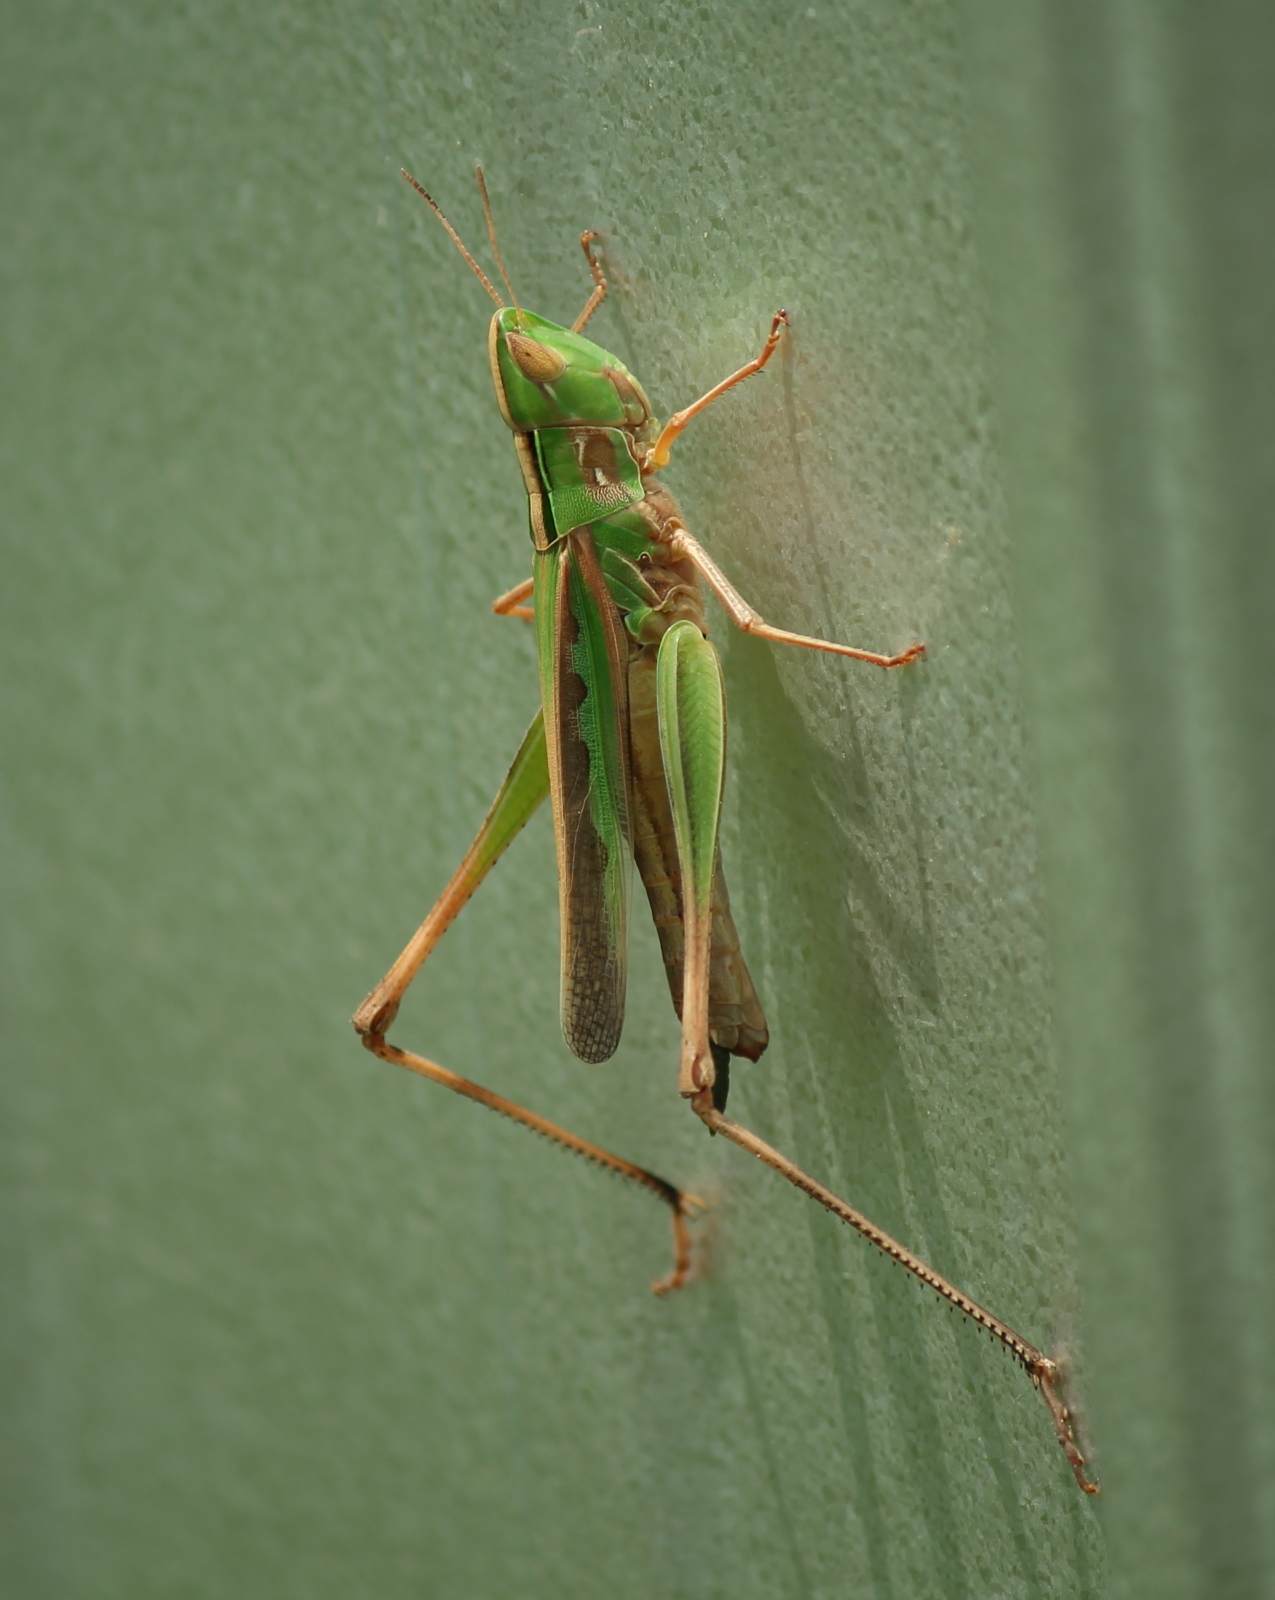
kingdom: Animalia
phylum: Arthropoda
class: Insecta
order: Orthoptera
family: Acrididae
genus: Syrbula
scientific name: Syrbula admirabilis
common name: Handsome grasshopper
